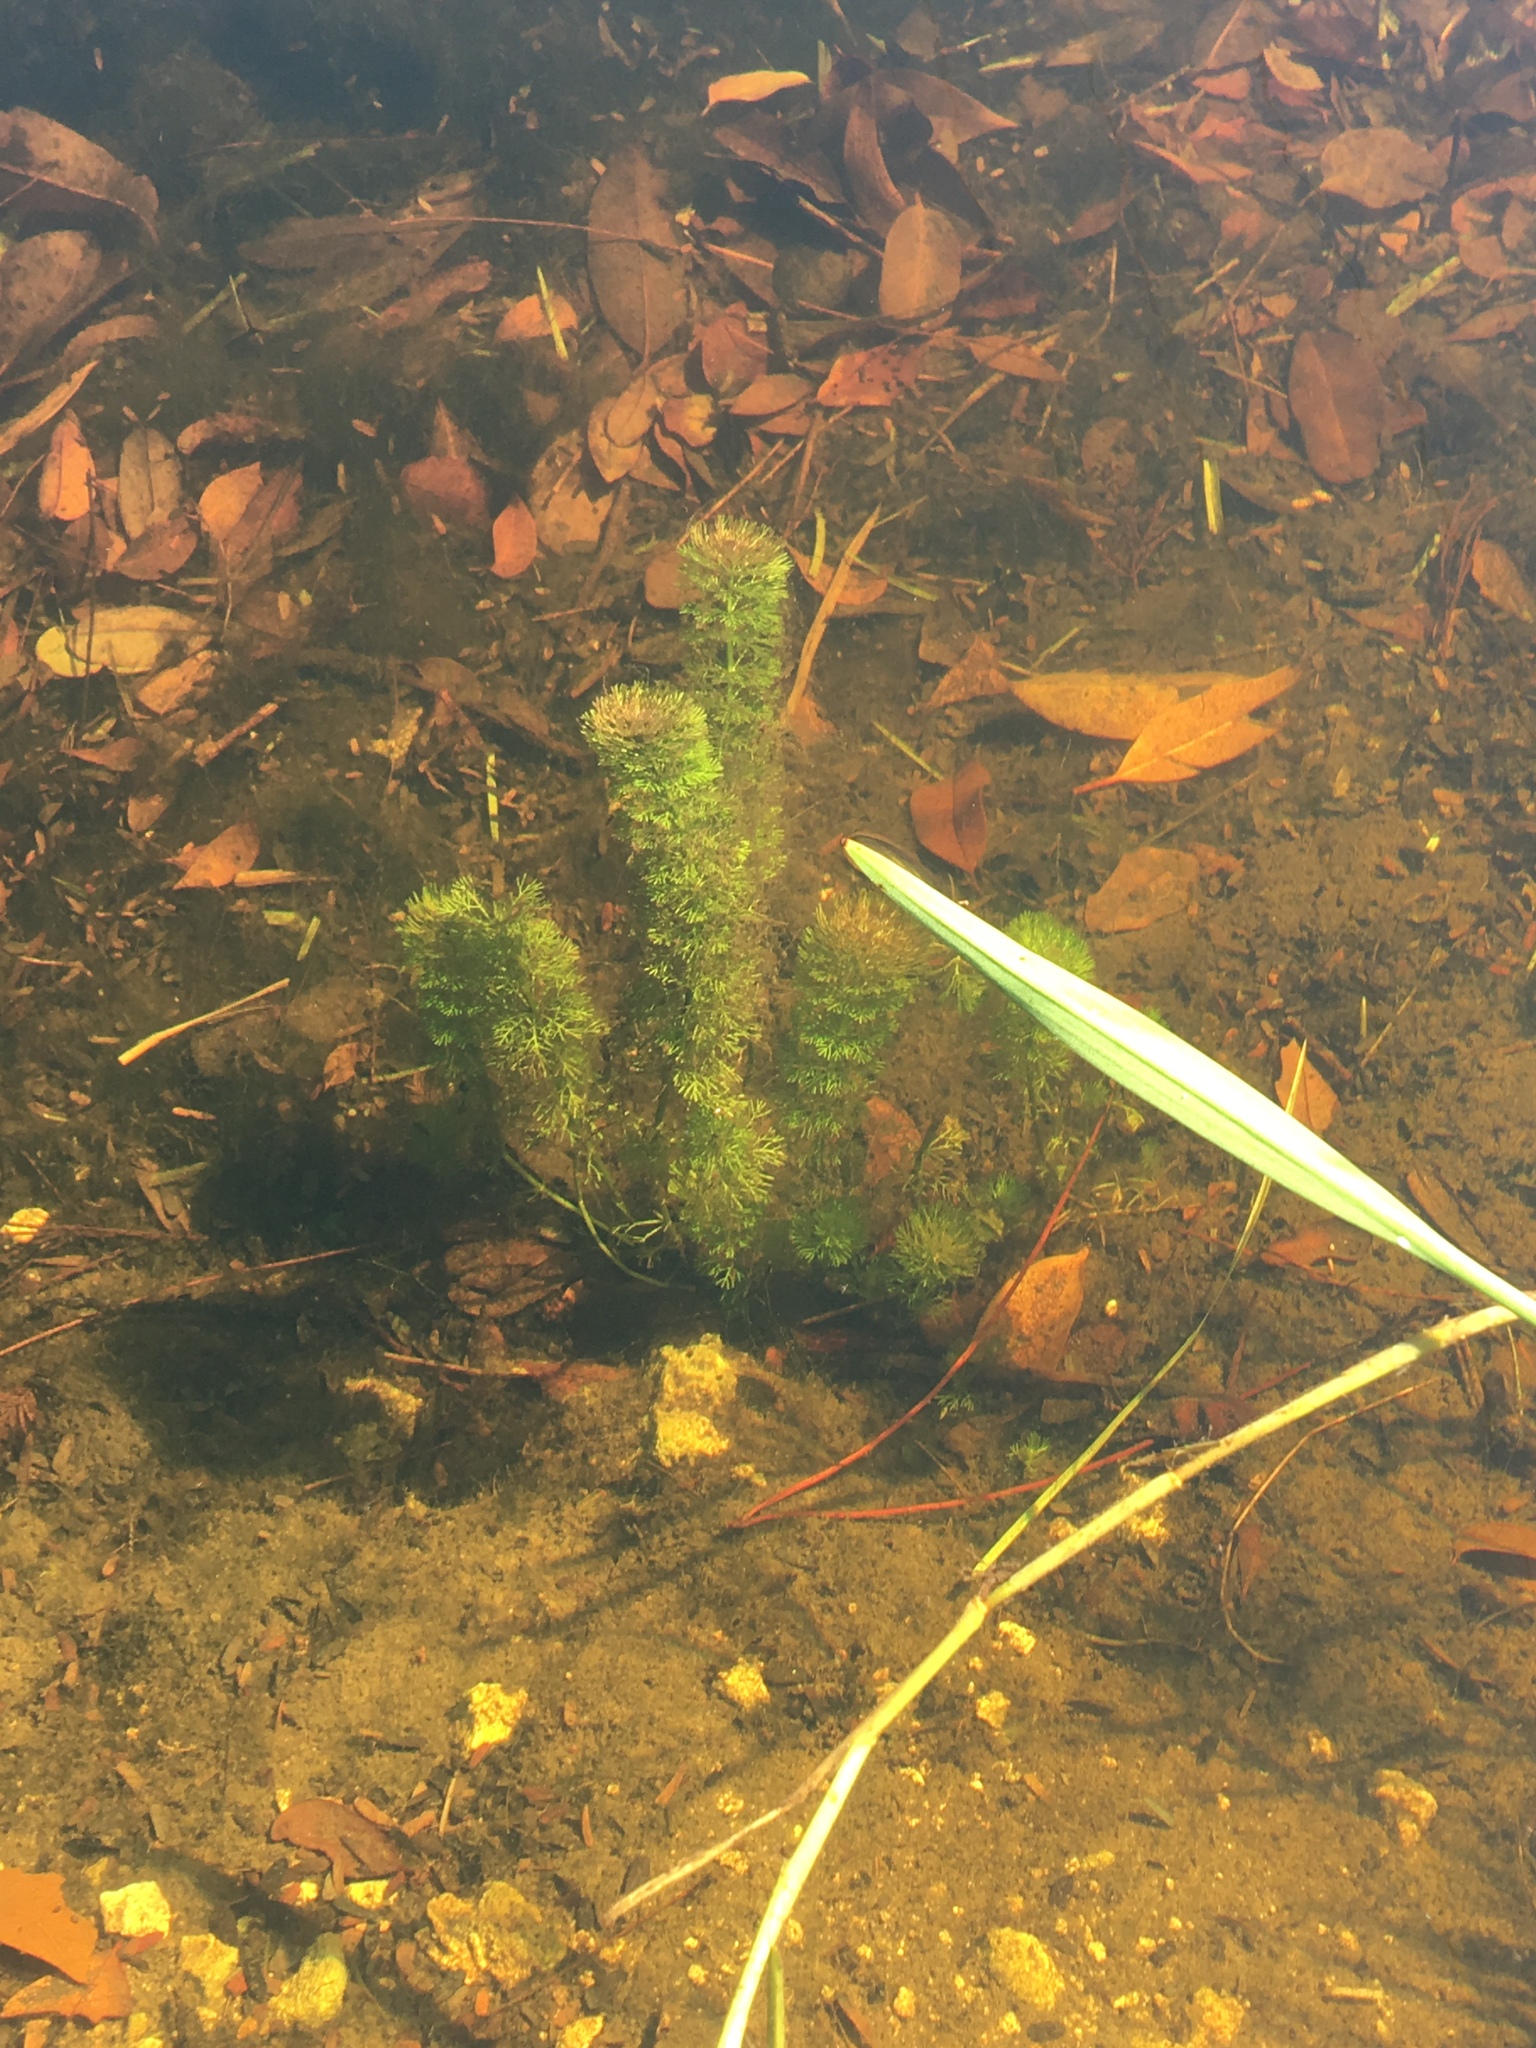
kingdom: Plantae
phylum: Tracheophyta
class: Magnoliopsida
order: Lamiales
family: Plantaginaceae
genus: Limnophila
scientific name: Limnophila sessiliflora
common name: Asian marshweed
